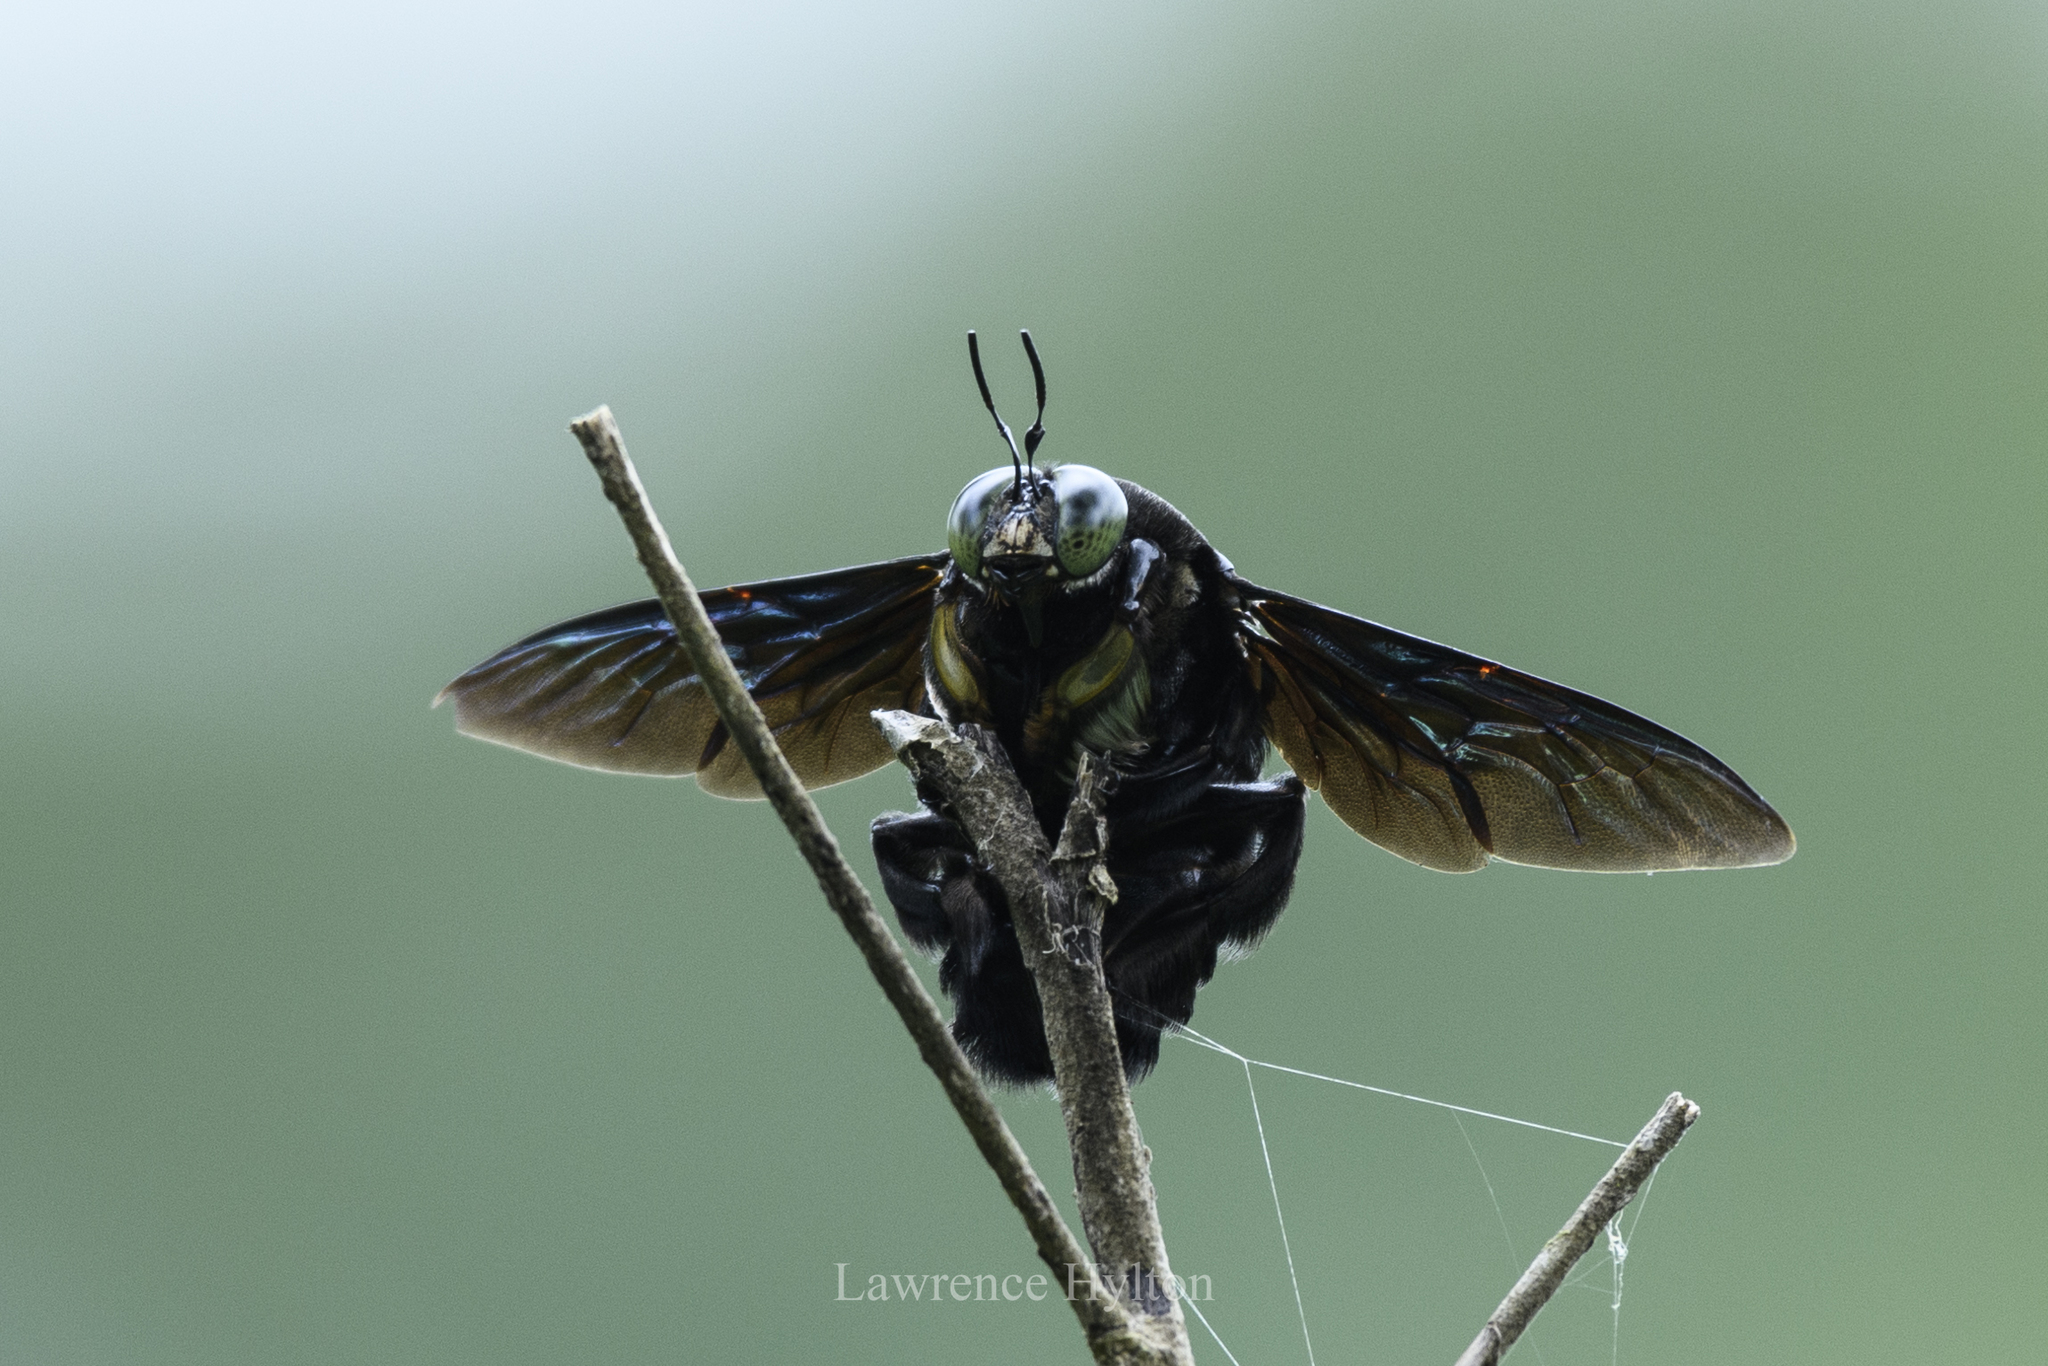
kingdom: Animalia
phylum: Arthropoda
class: Insecta
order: Hymenoptera
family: Apidae
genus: Xylocopa
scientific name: Xylocopa latipes
